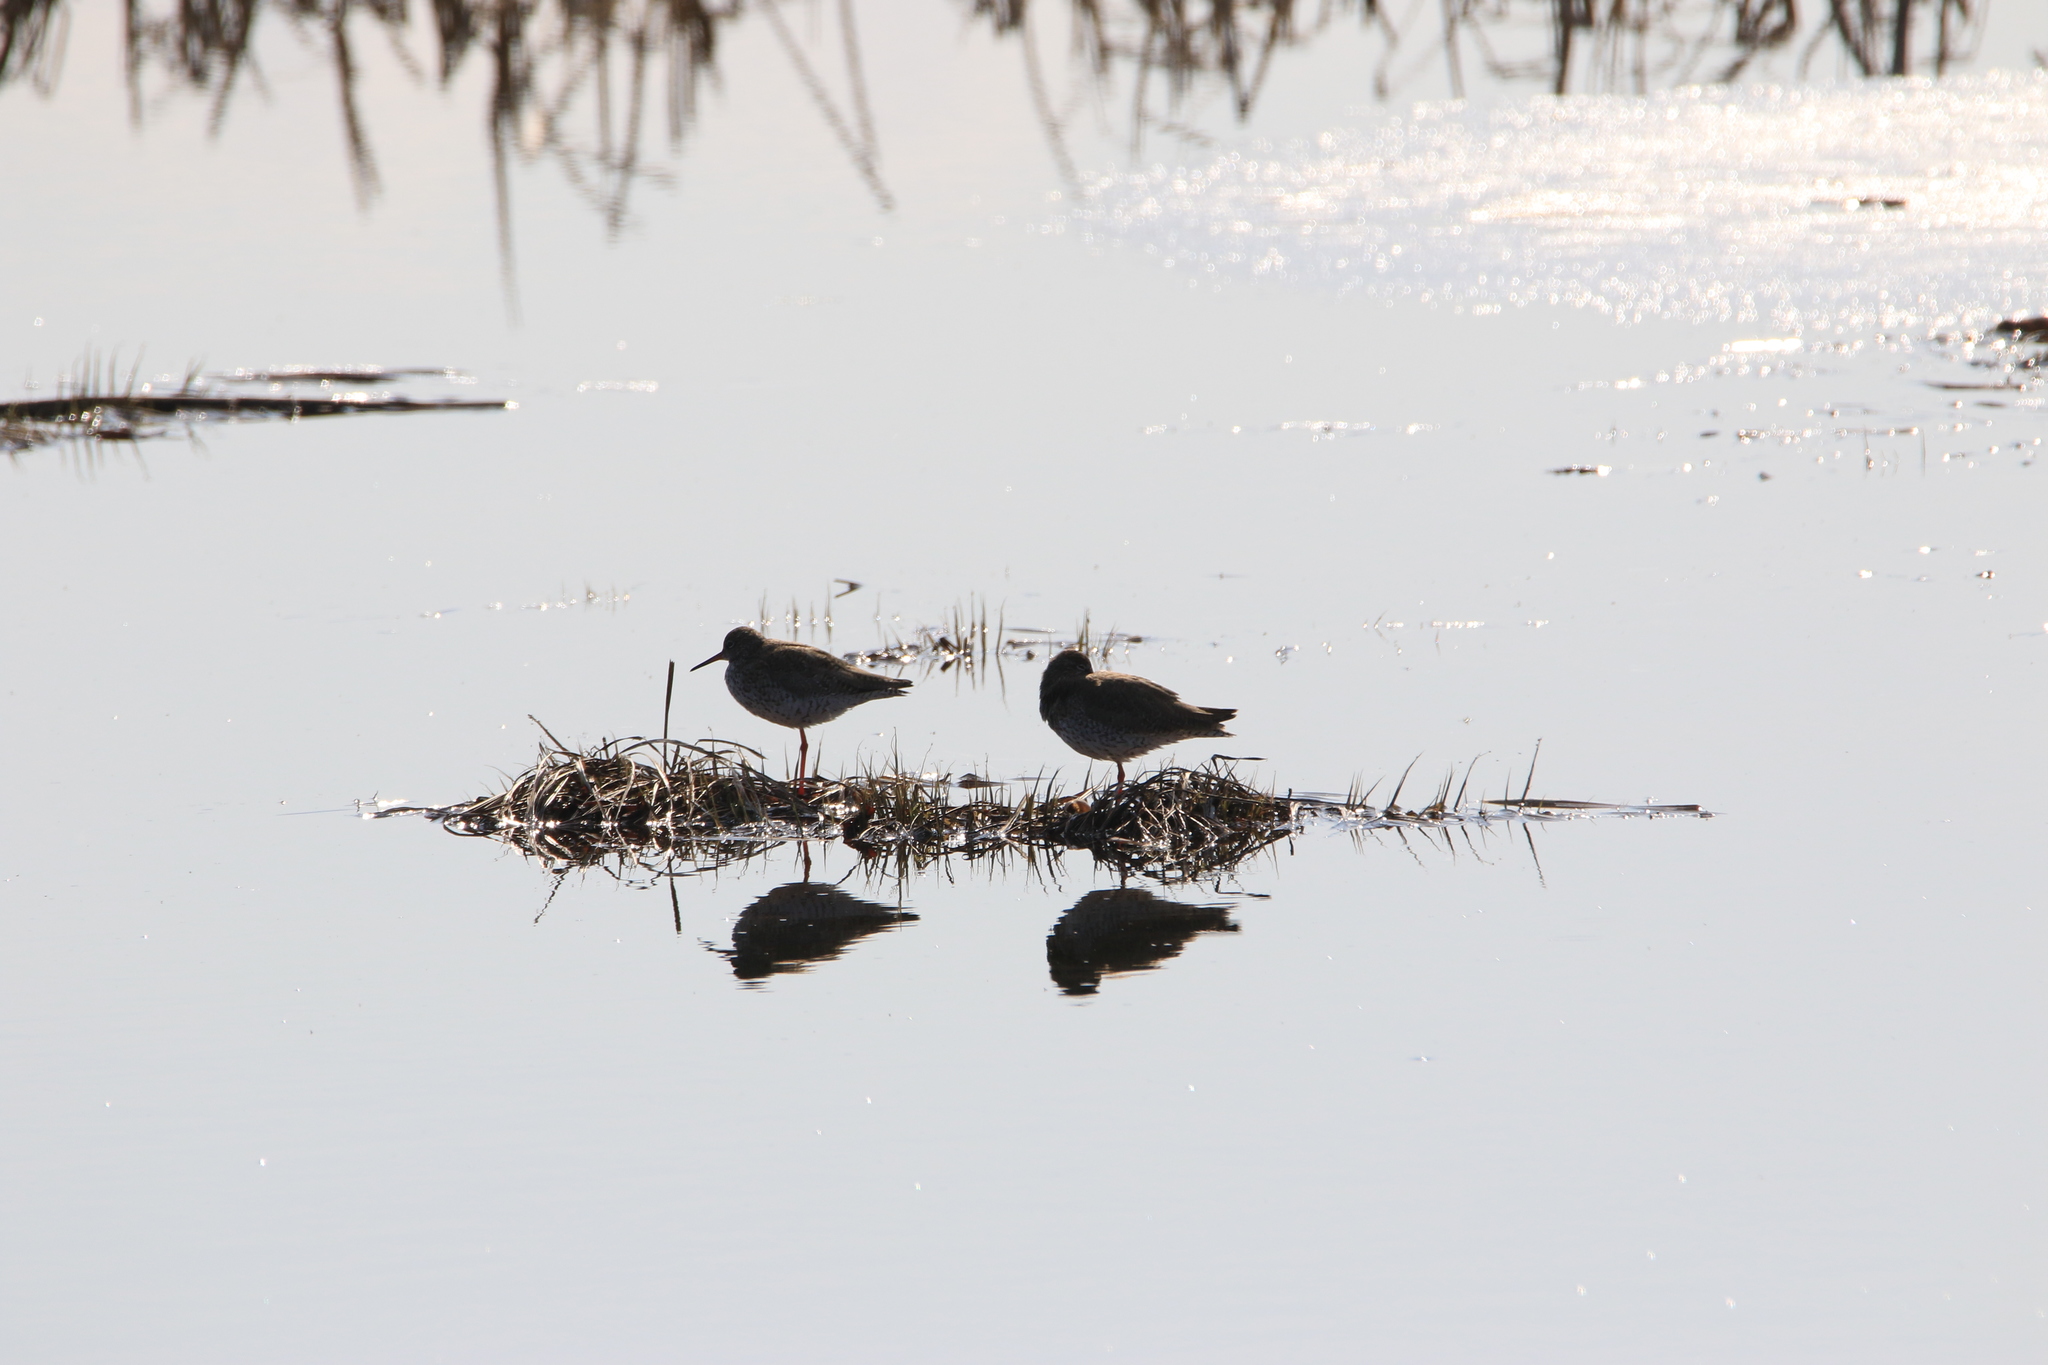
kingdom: Animalia
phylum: Chordata
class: Aves
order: Charadriiformes
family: Scolopacidae
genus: Tringa
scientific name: Tringa totanus
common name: Common redshank
